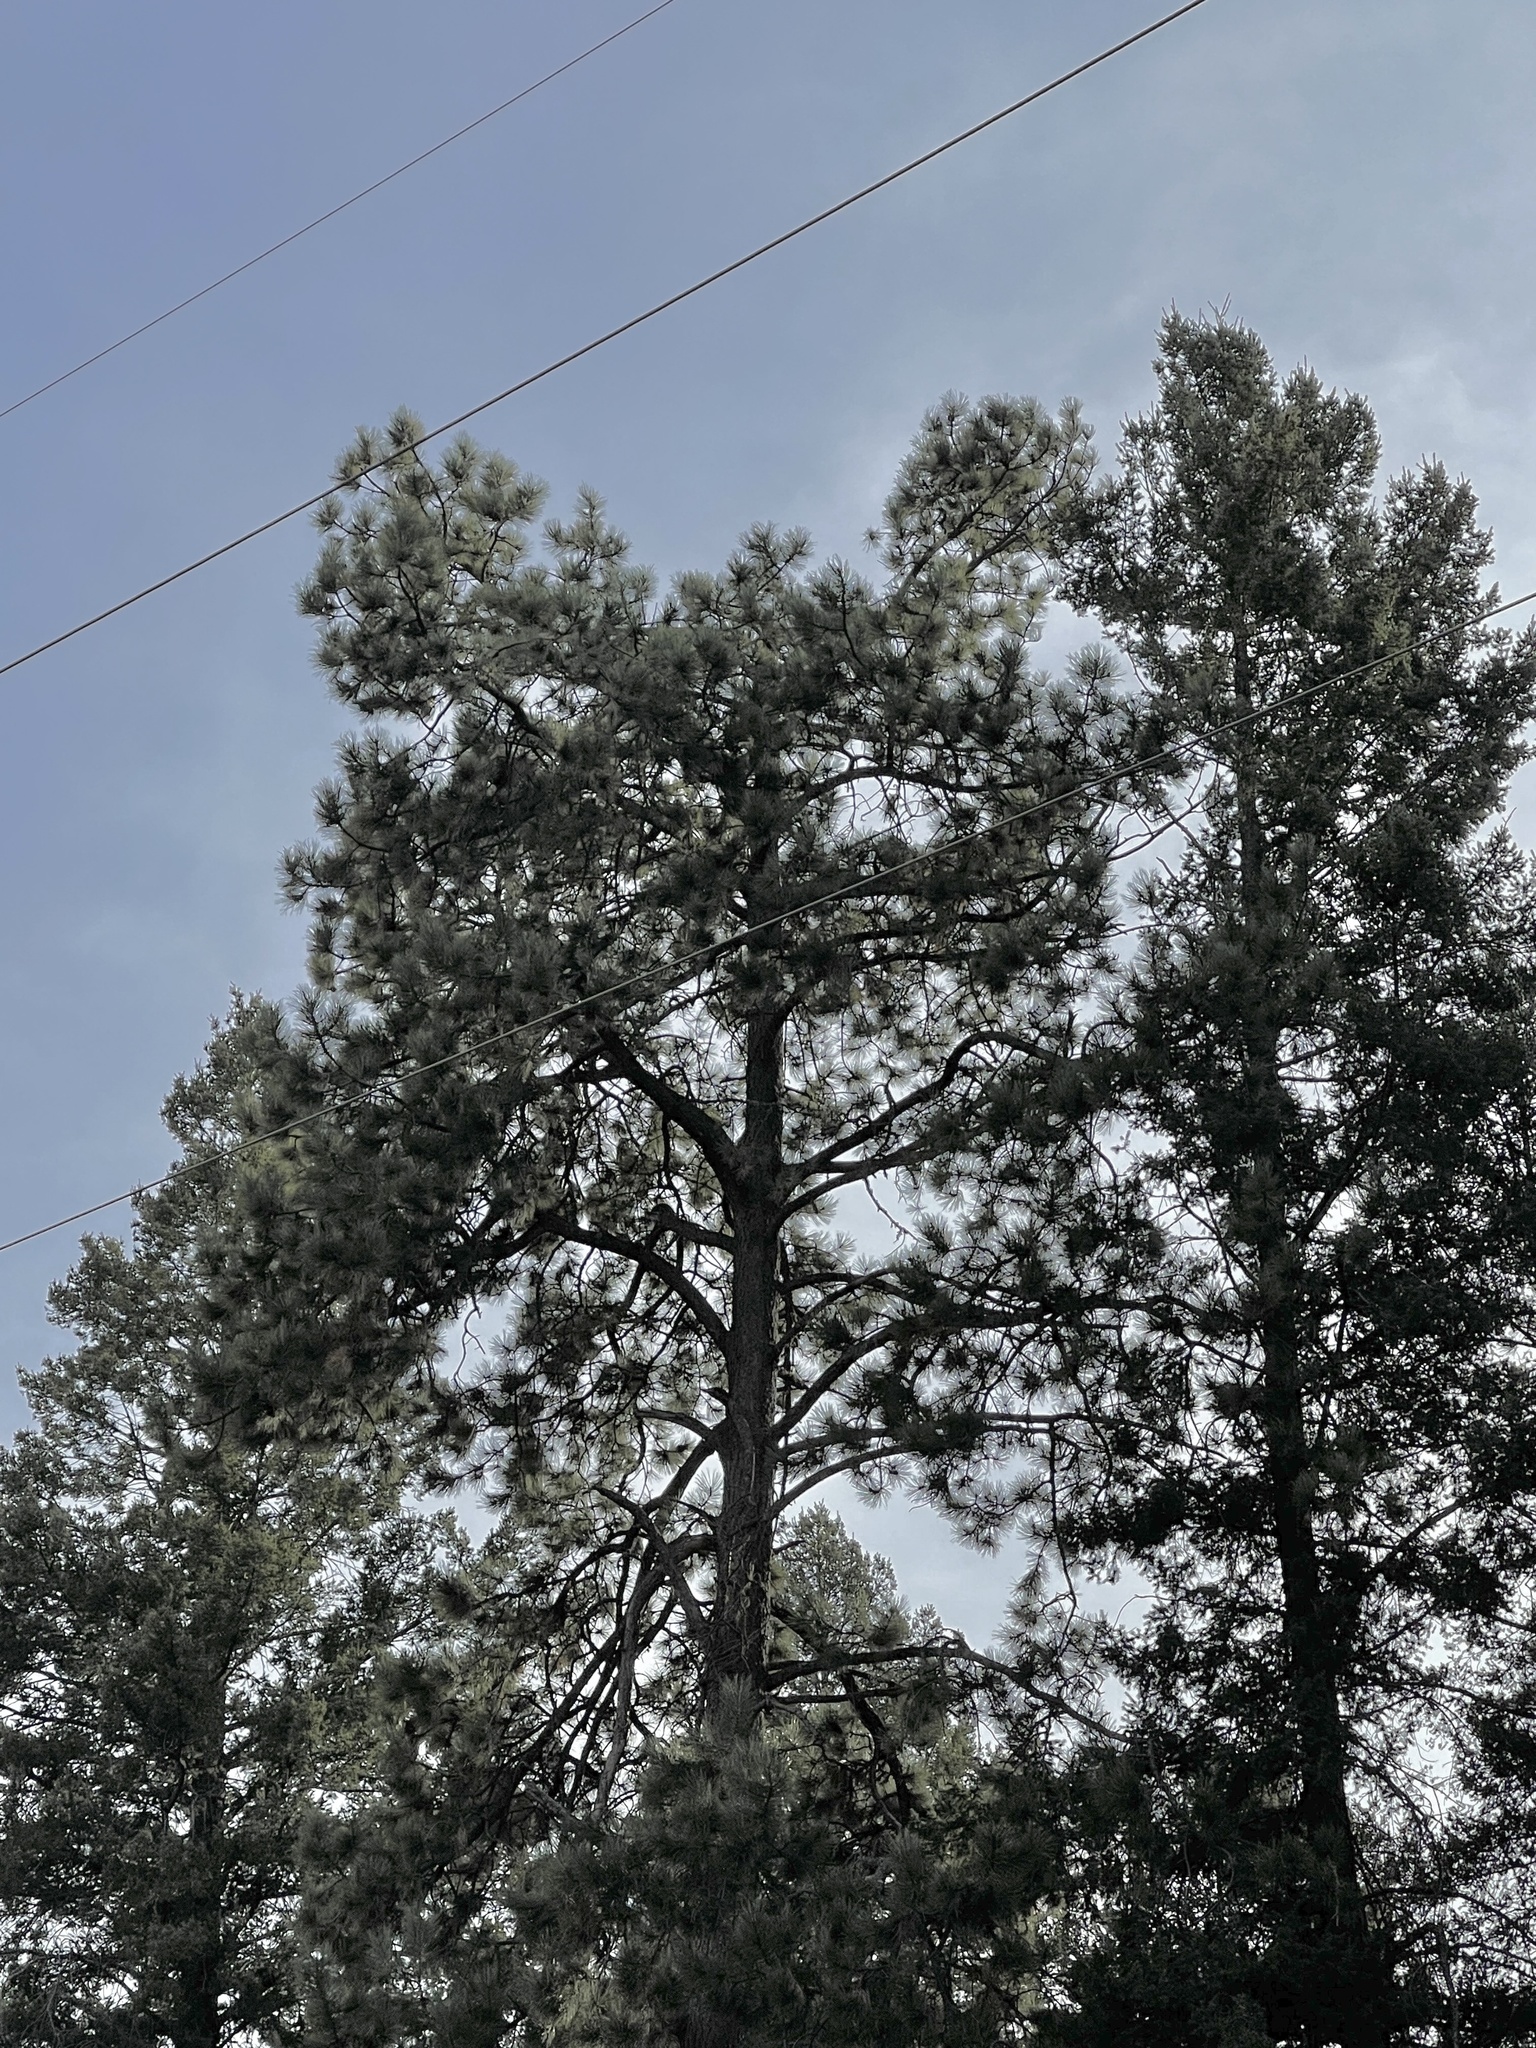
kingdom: Plantae
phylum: Tracheophyta
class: Pinopsida
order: Pinales
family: Pinaceae
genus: Pinus
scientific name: Pinus ponderosa
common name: Western yellow-pine
